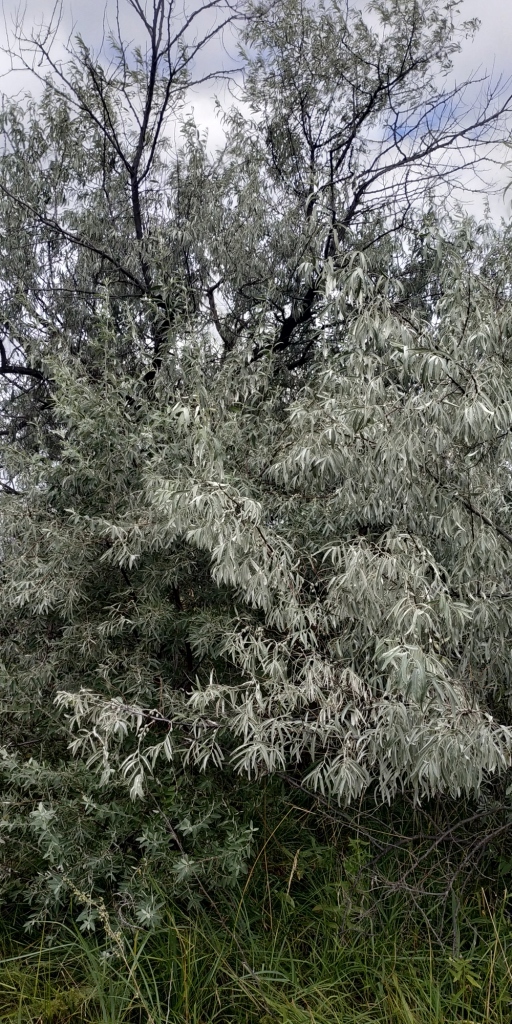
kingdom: Plantae
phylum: Tracheophyta
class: Magnoliopsida
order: Rosales
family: Elaeagnaceae
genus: Elaeagnus
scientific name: Elaeagnus angustifolia
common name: Russian olive
